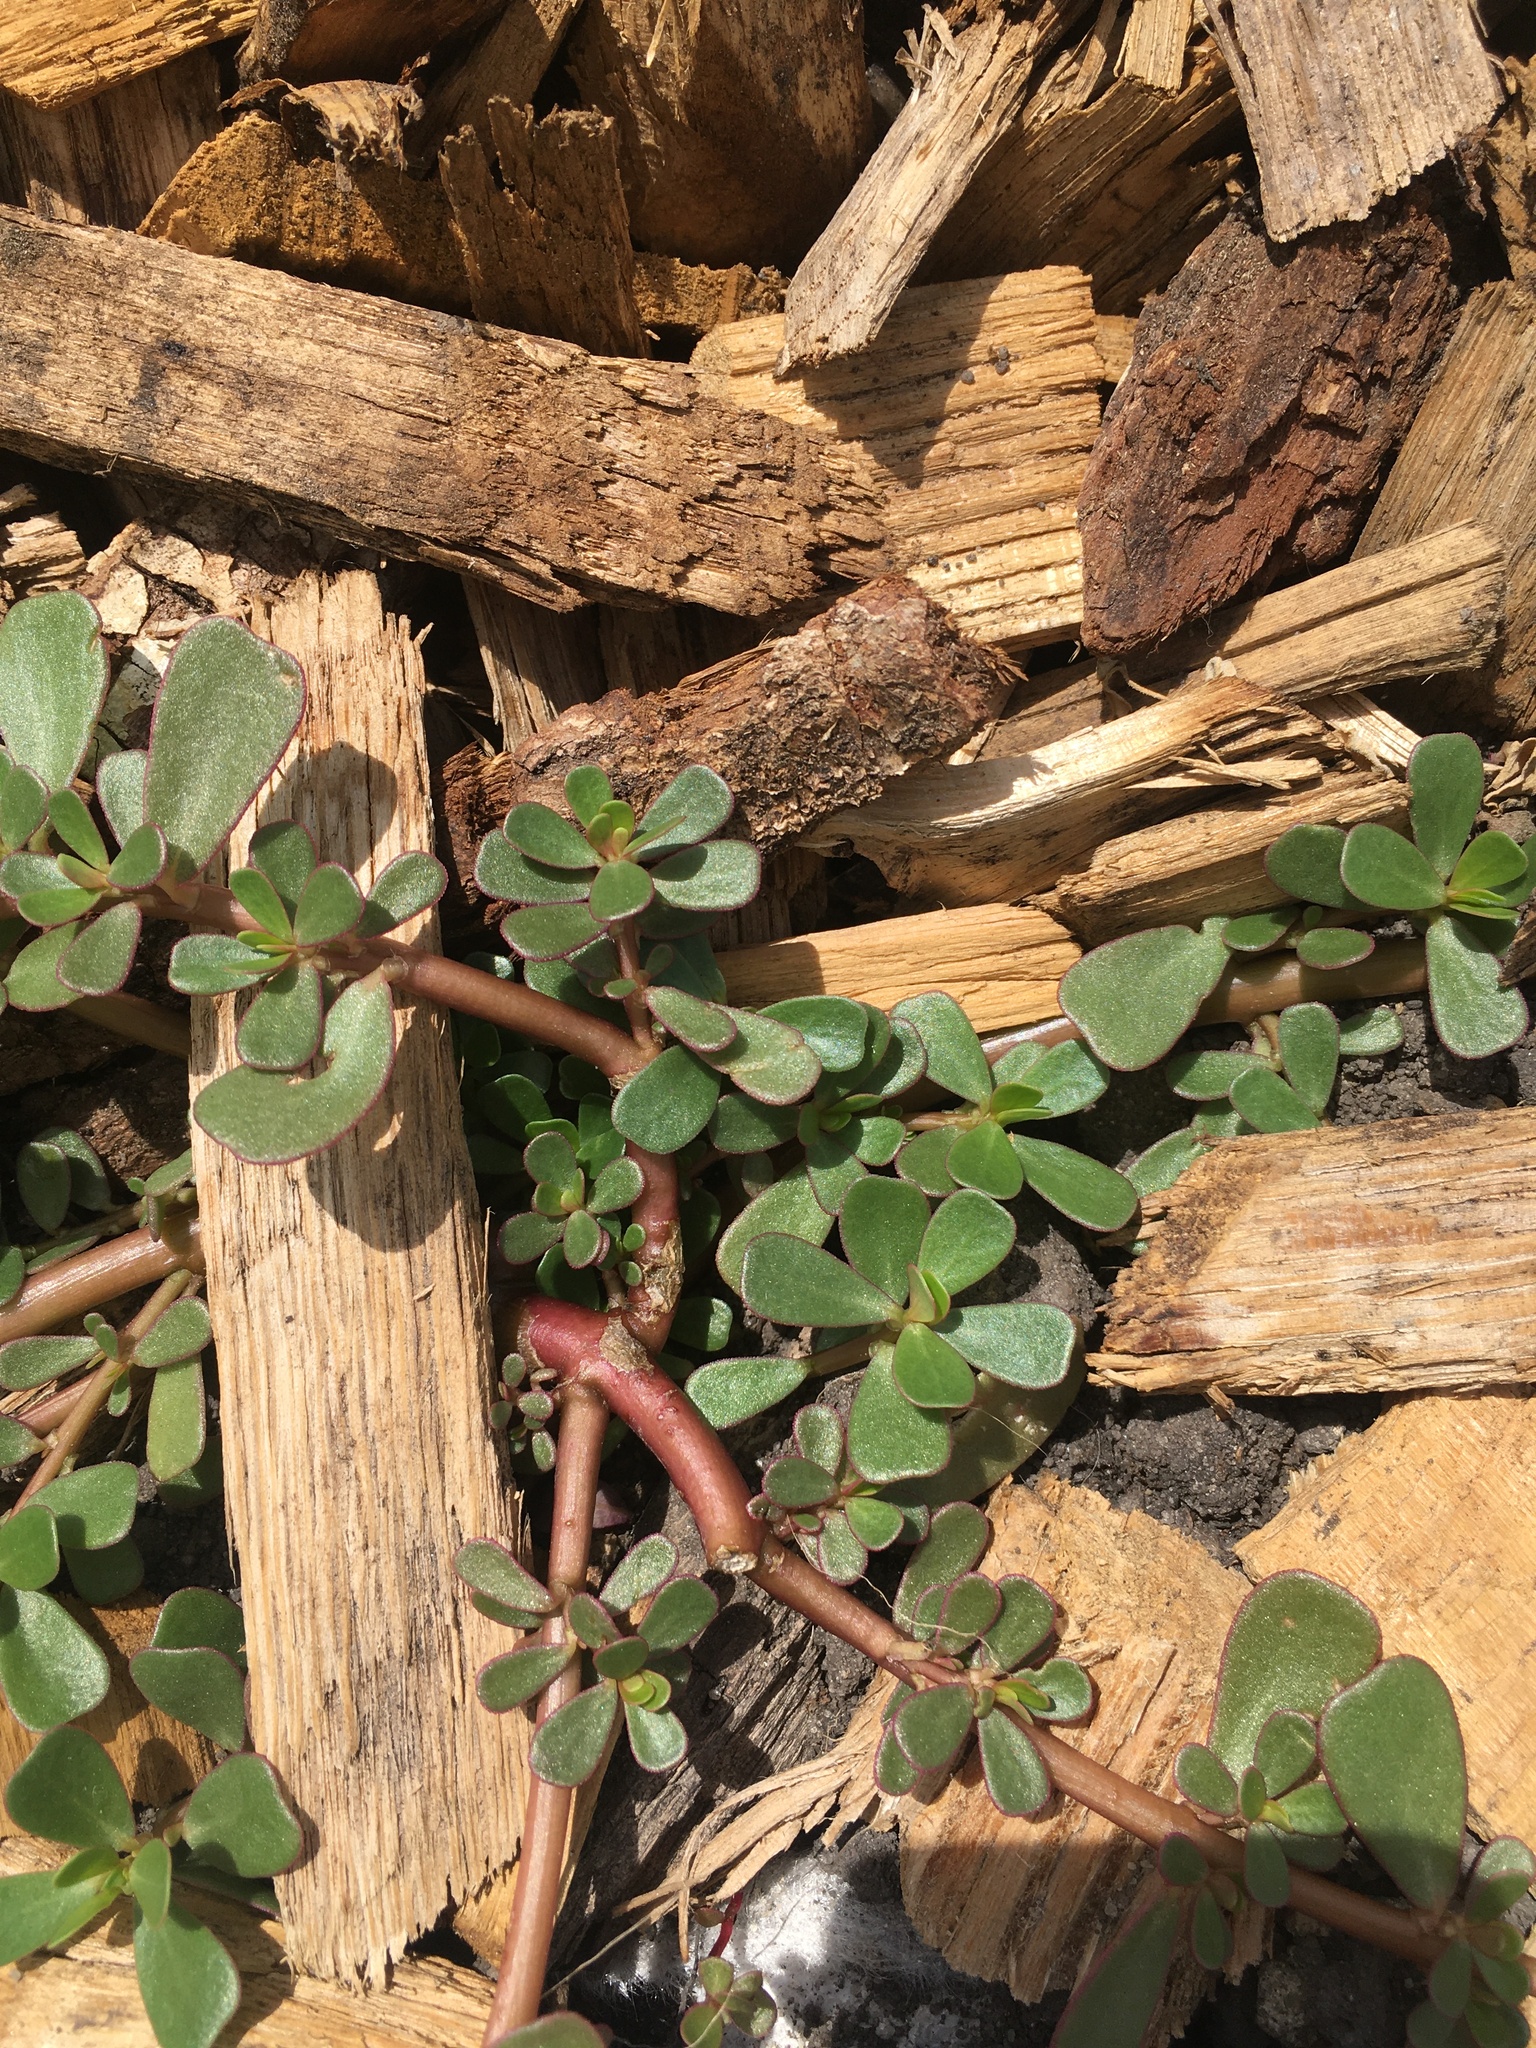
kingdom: Plantae
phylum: Tracheophyta
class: Magnoliopsida
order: Caryophyllales
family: Portulacaceae
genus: Portulaca
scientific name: Portulaca oleracea
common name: Common purslane
